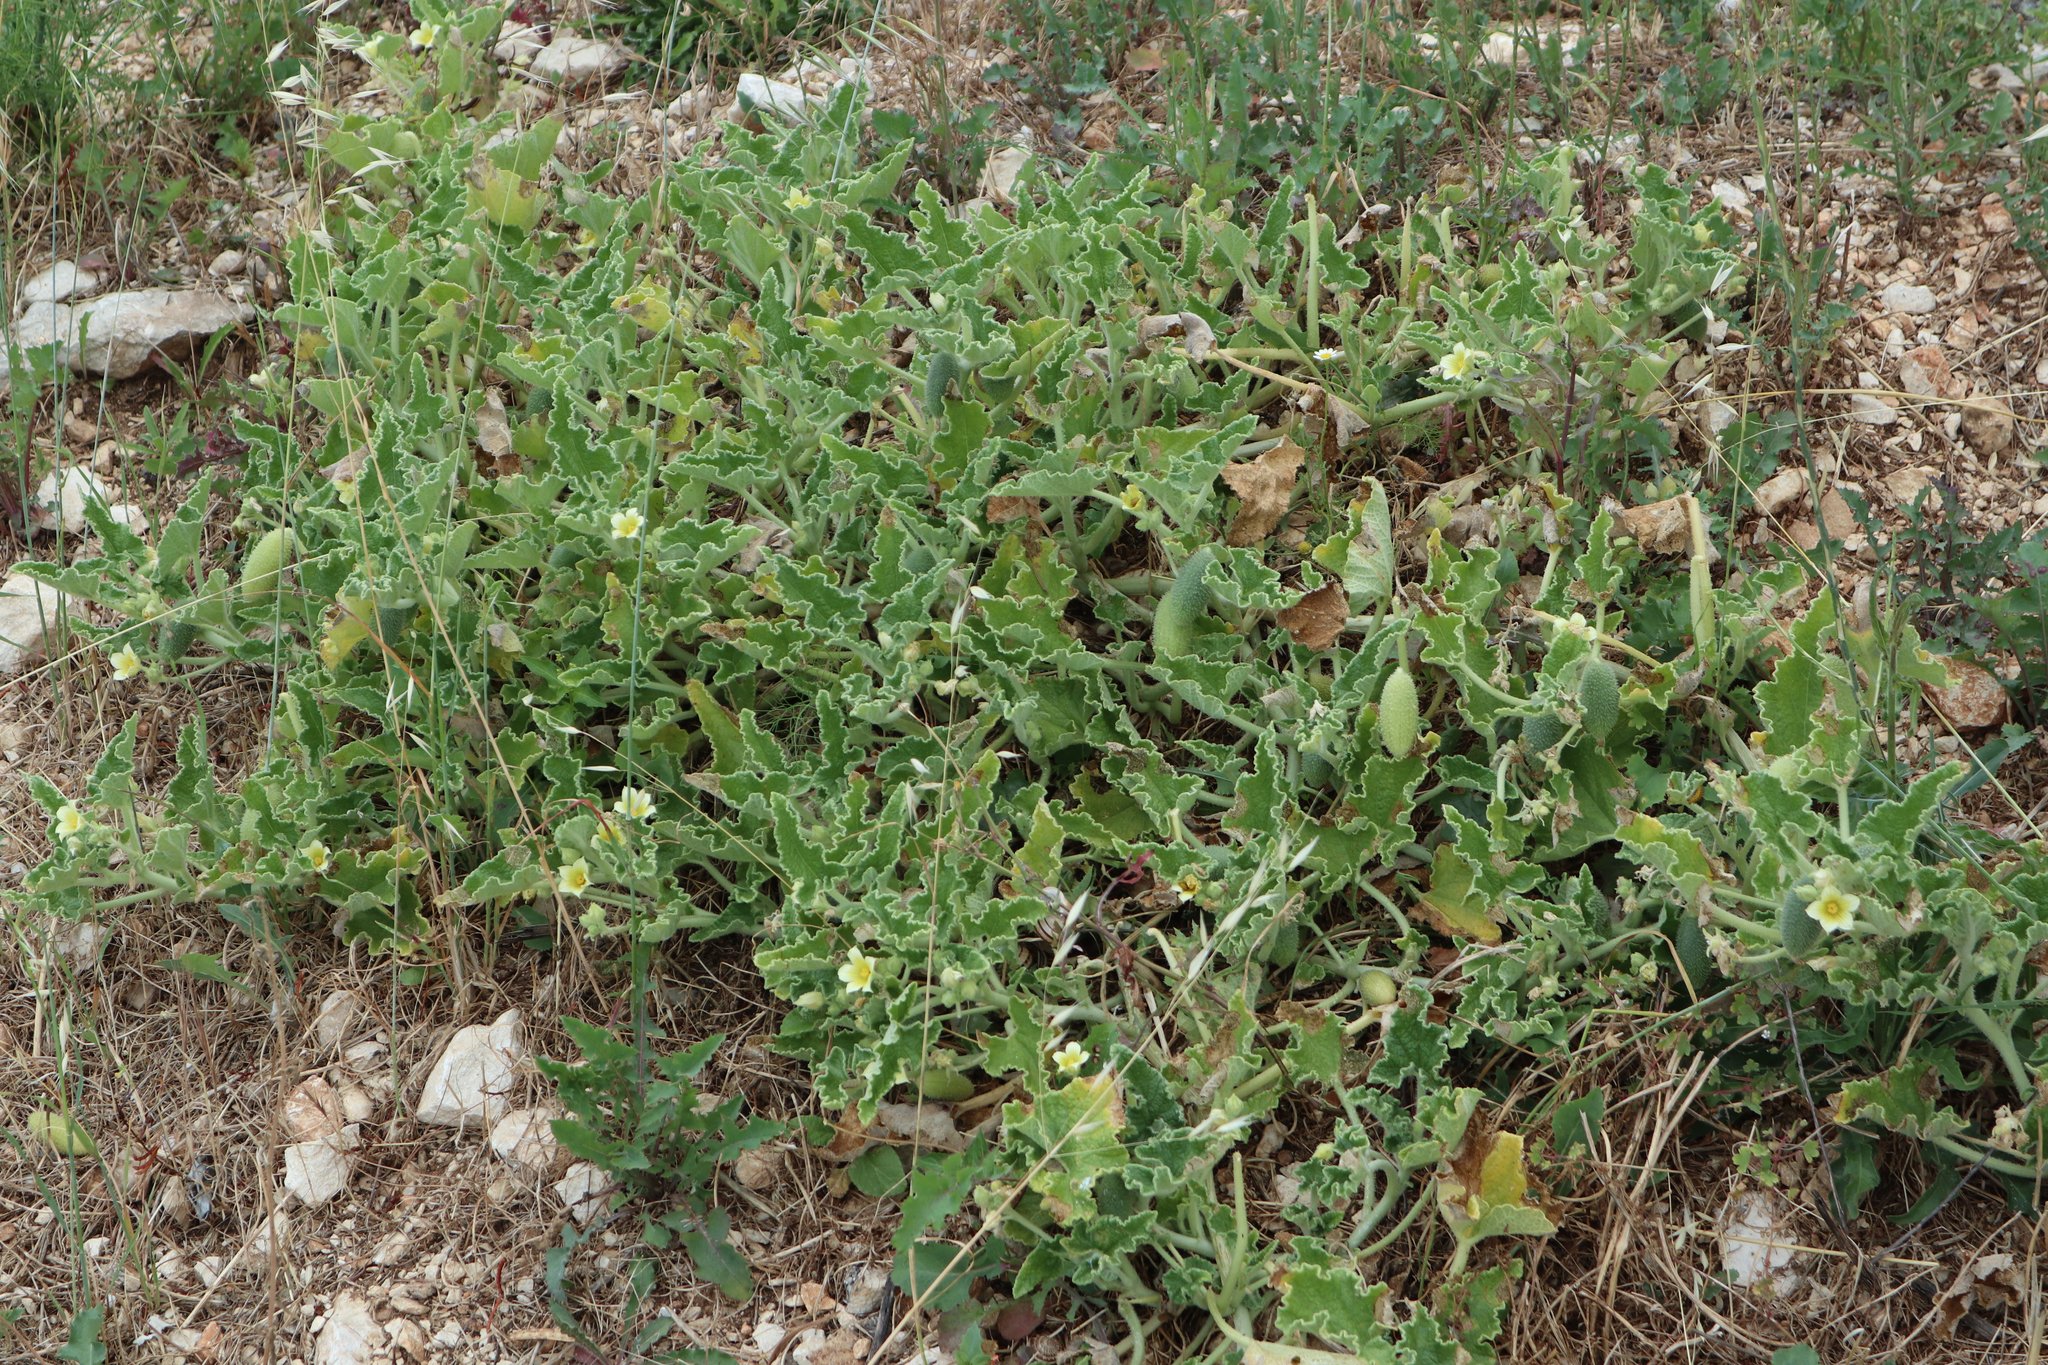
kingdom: Plantae
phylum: Tracheophyta
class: Magnoliopsida
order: Cucurbitales
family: Cucurbitaceae
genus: Ecballium
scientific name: Ecballium elaterium
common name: Squirting cucumber
